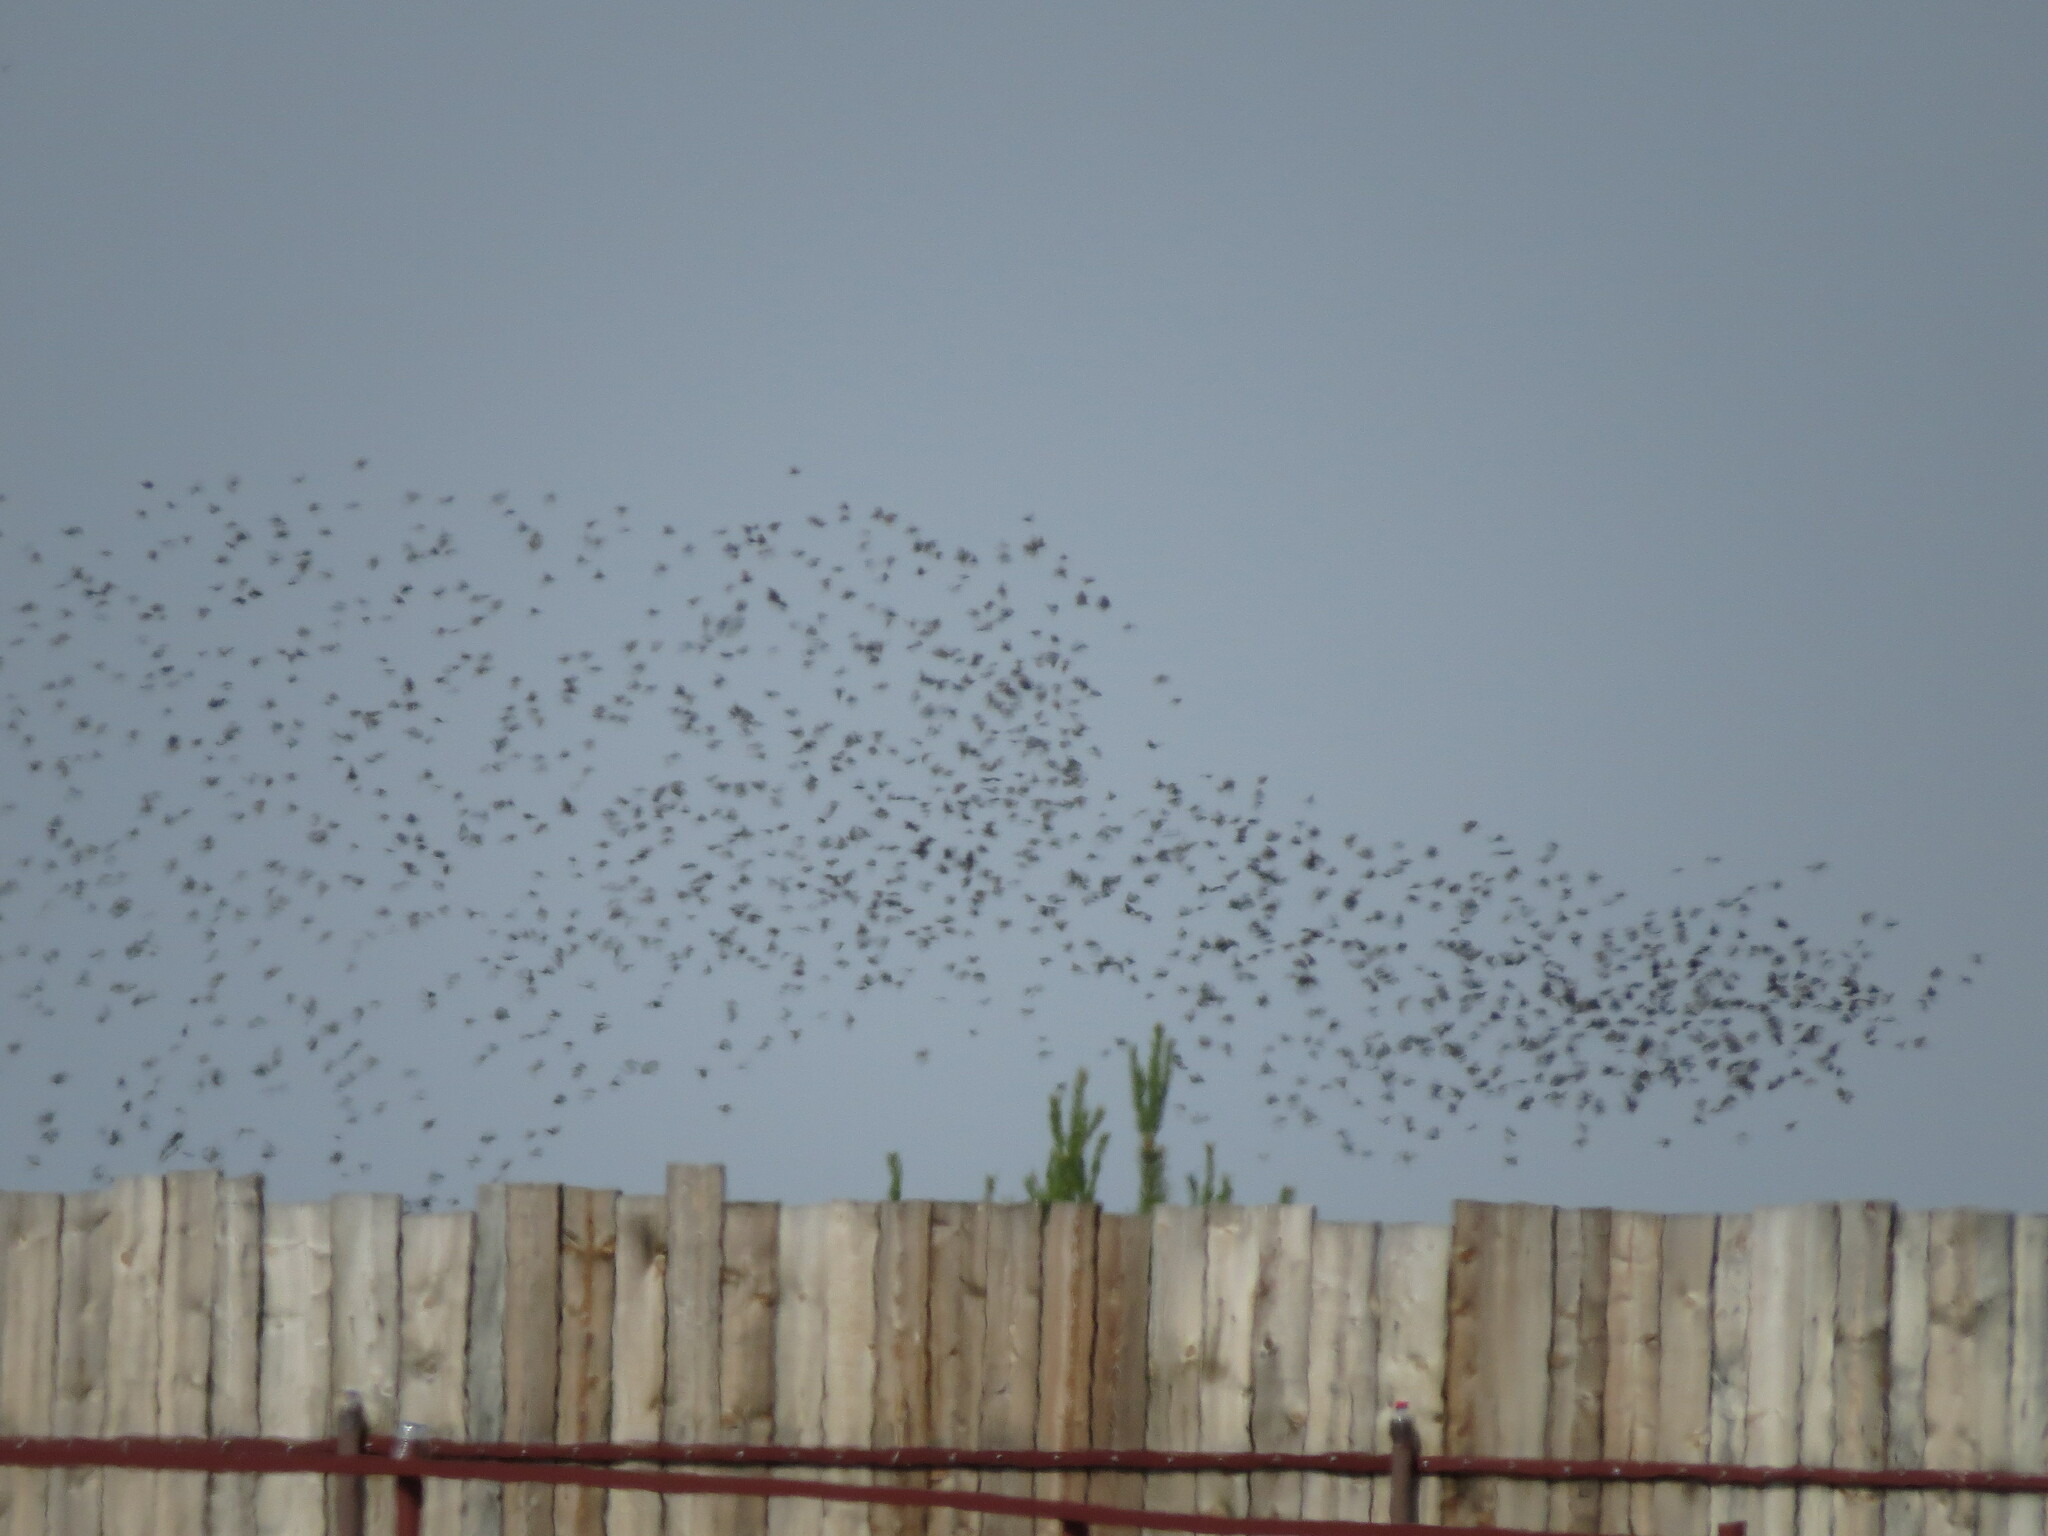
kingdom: Animalia
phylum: Chordata
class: Aves
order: Passeriformes
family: Sturnidae
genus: Sturnus
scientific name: Sturnus vulgaris
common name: Common starling
